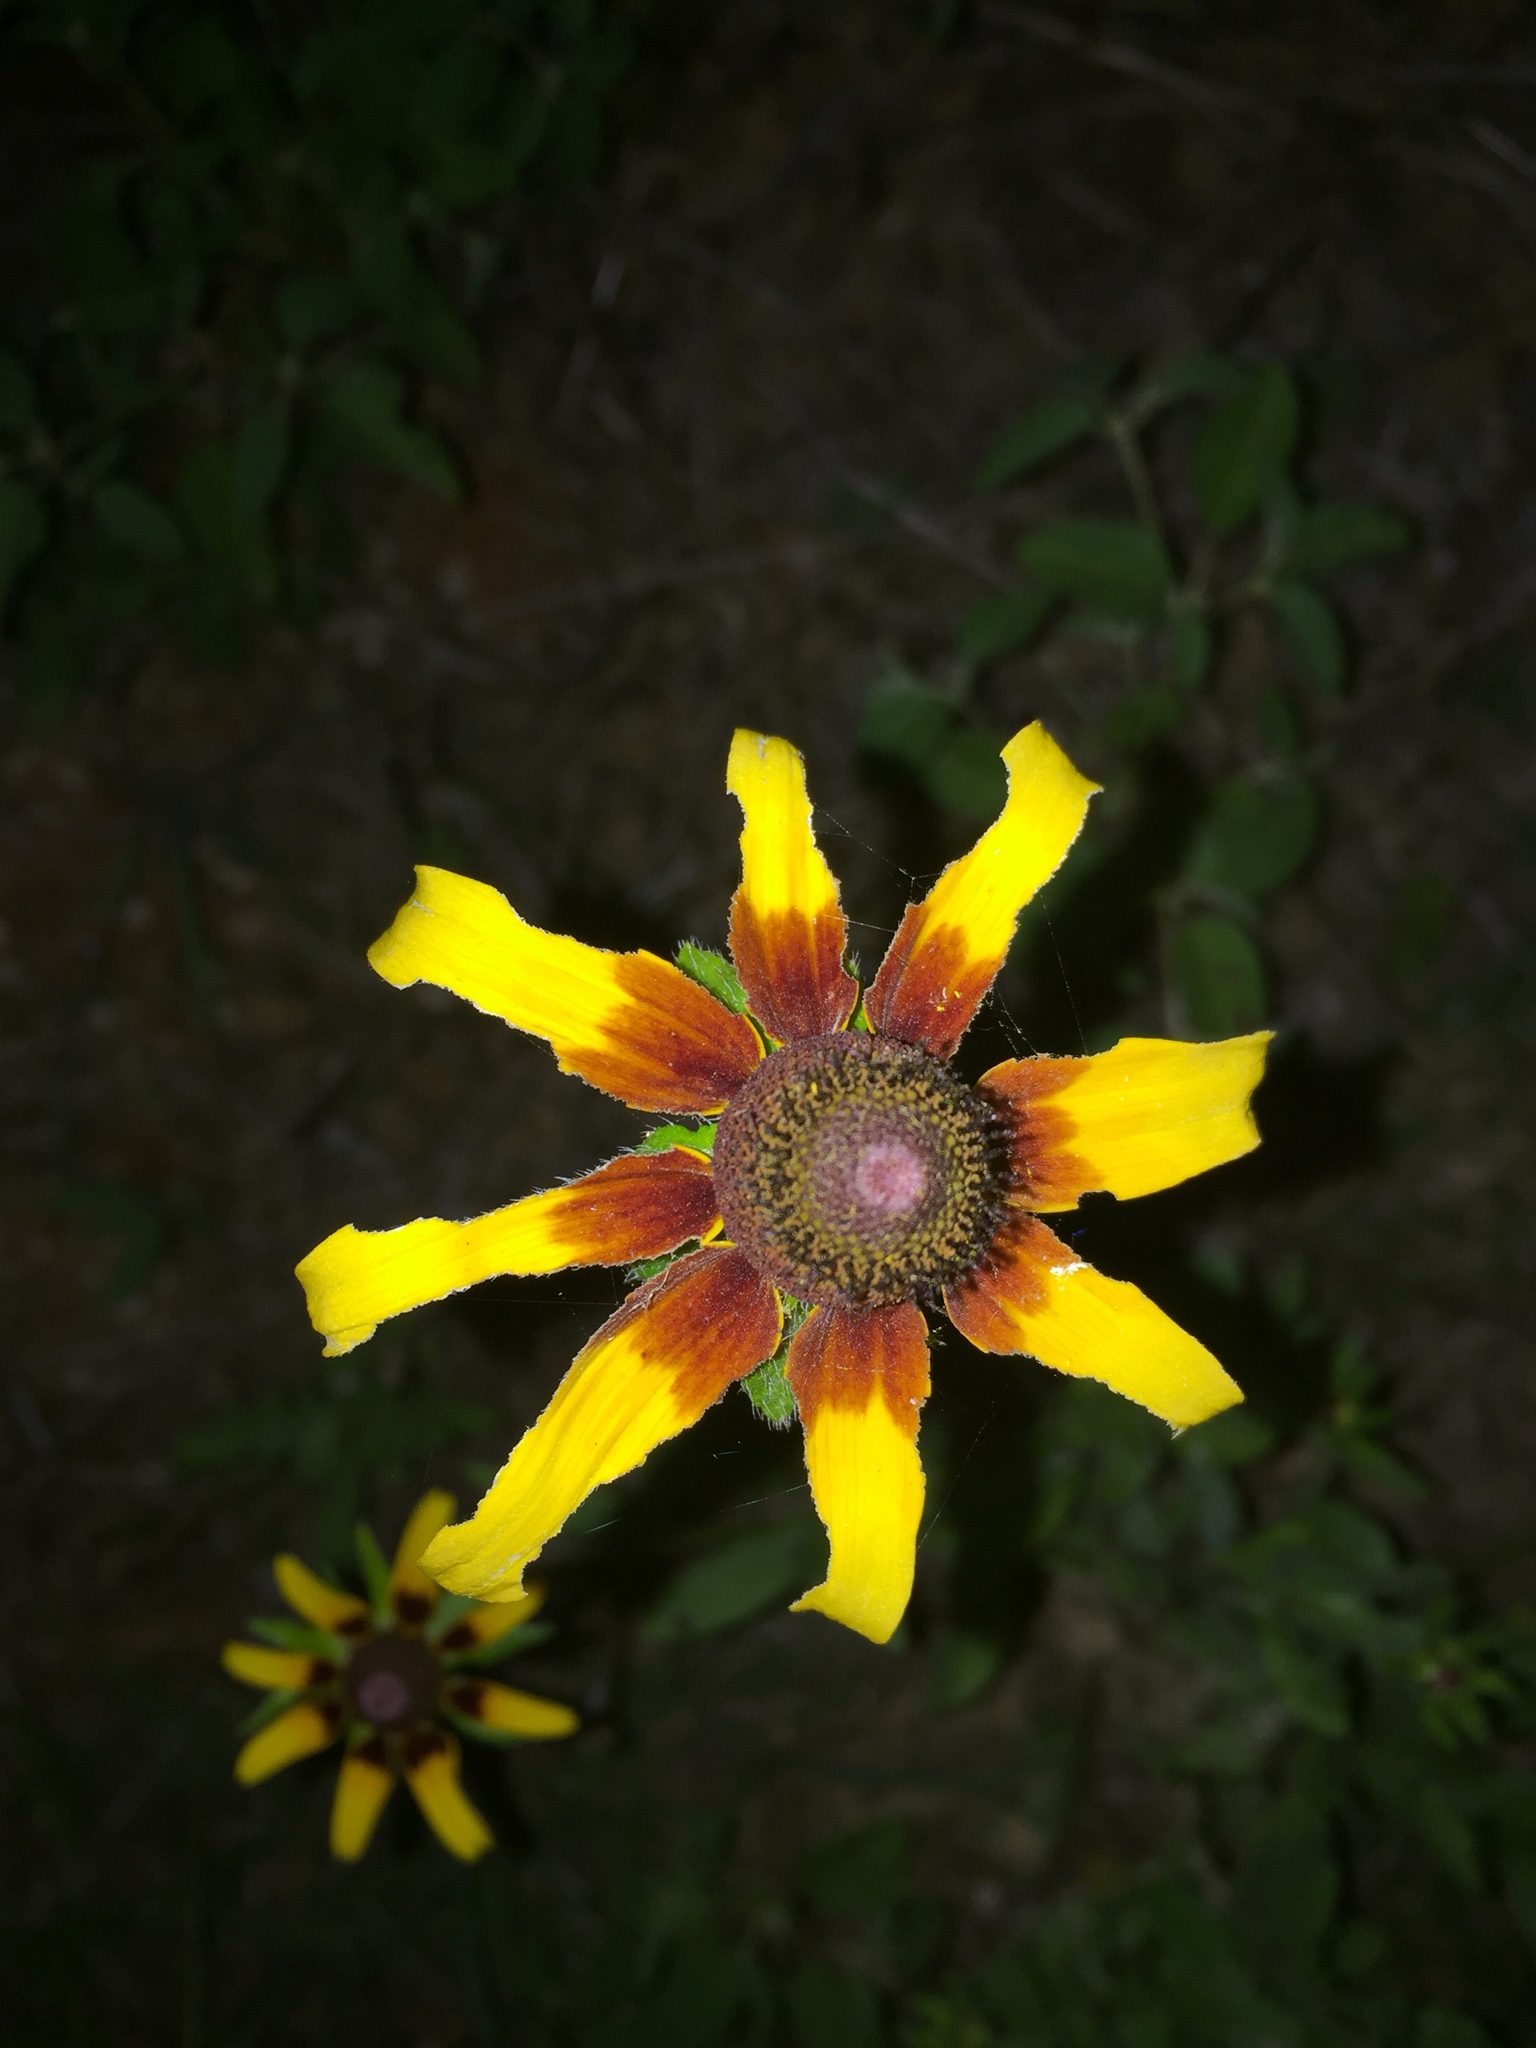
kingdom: Plantae
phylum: Tracheophyta
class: Magnoliopsida
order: Asterales
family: Asteraceae
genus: Rudbeckia
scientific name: Rudbeckia hirta
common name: Black-eyed-susan
